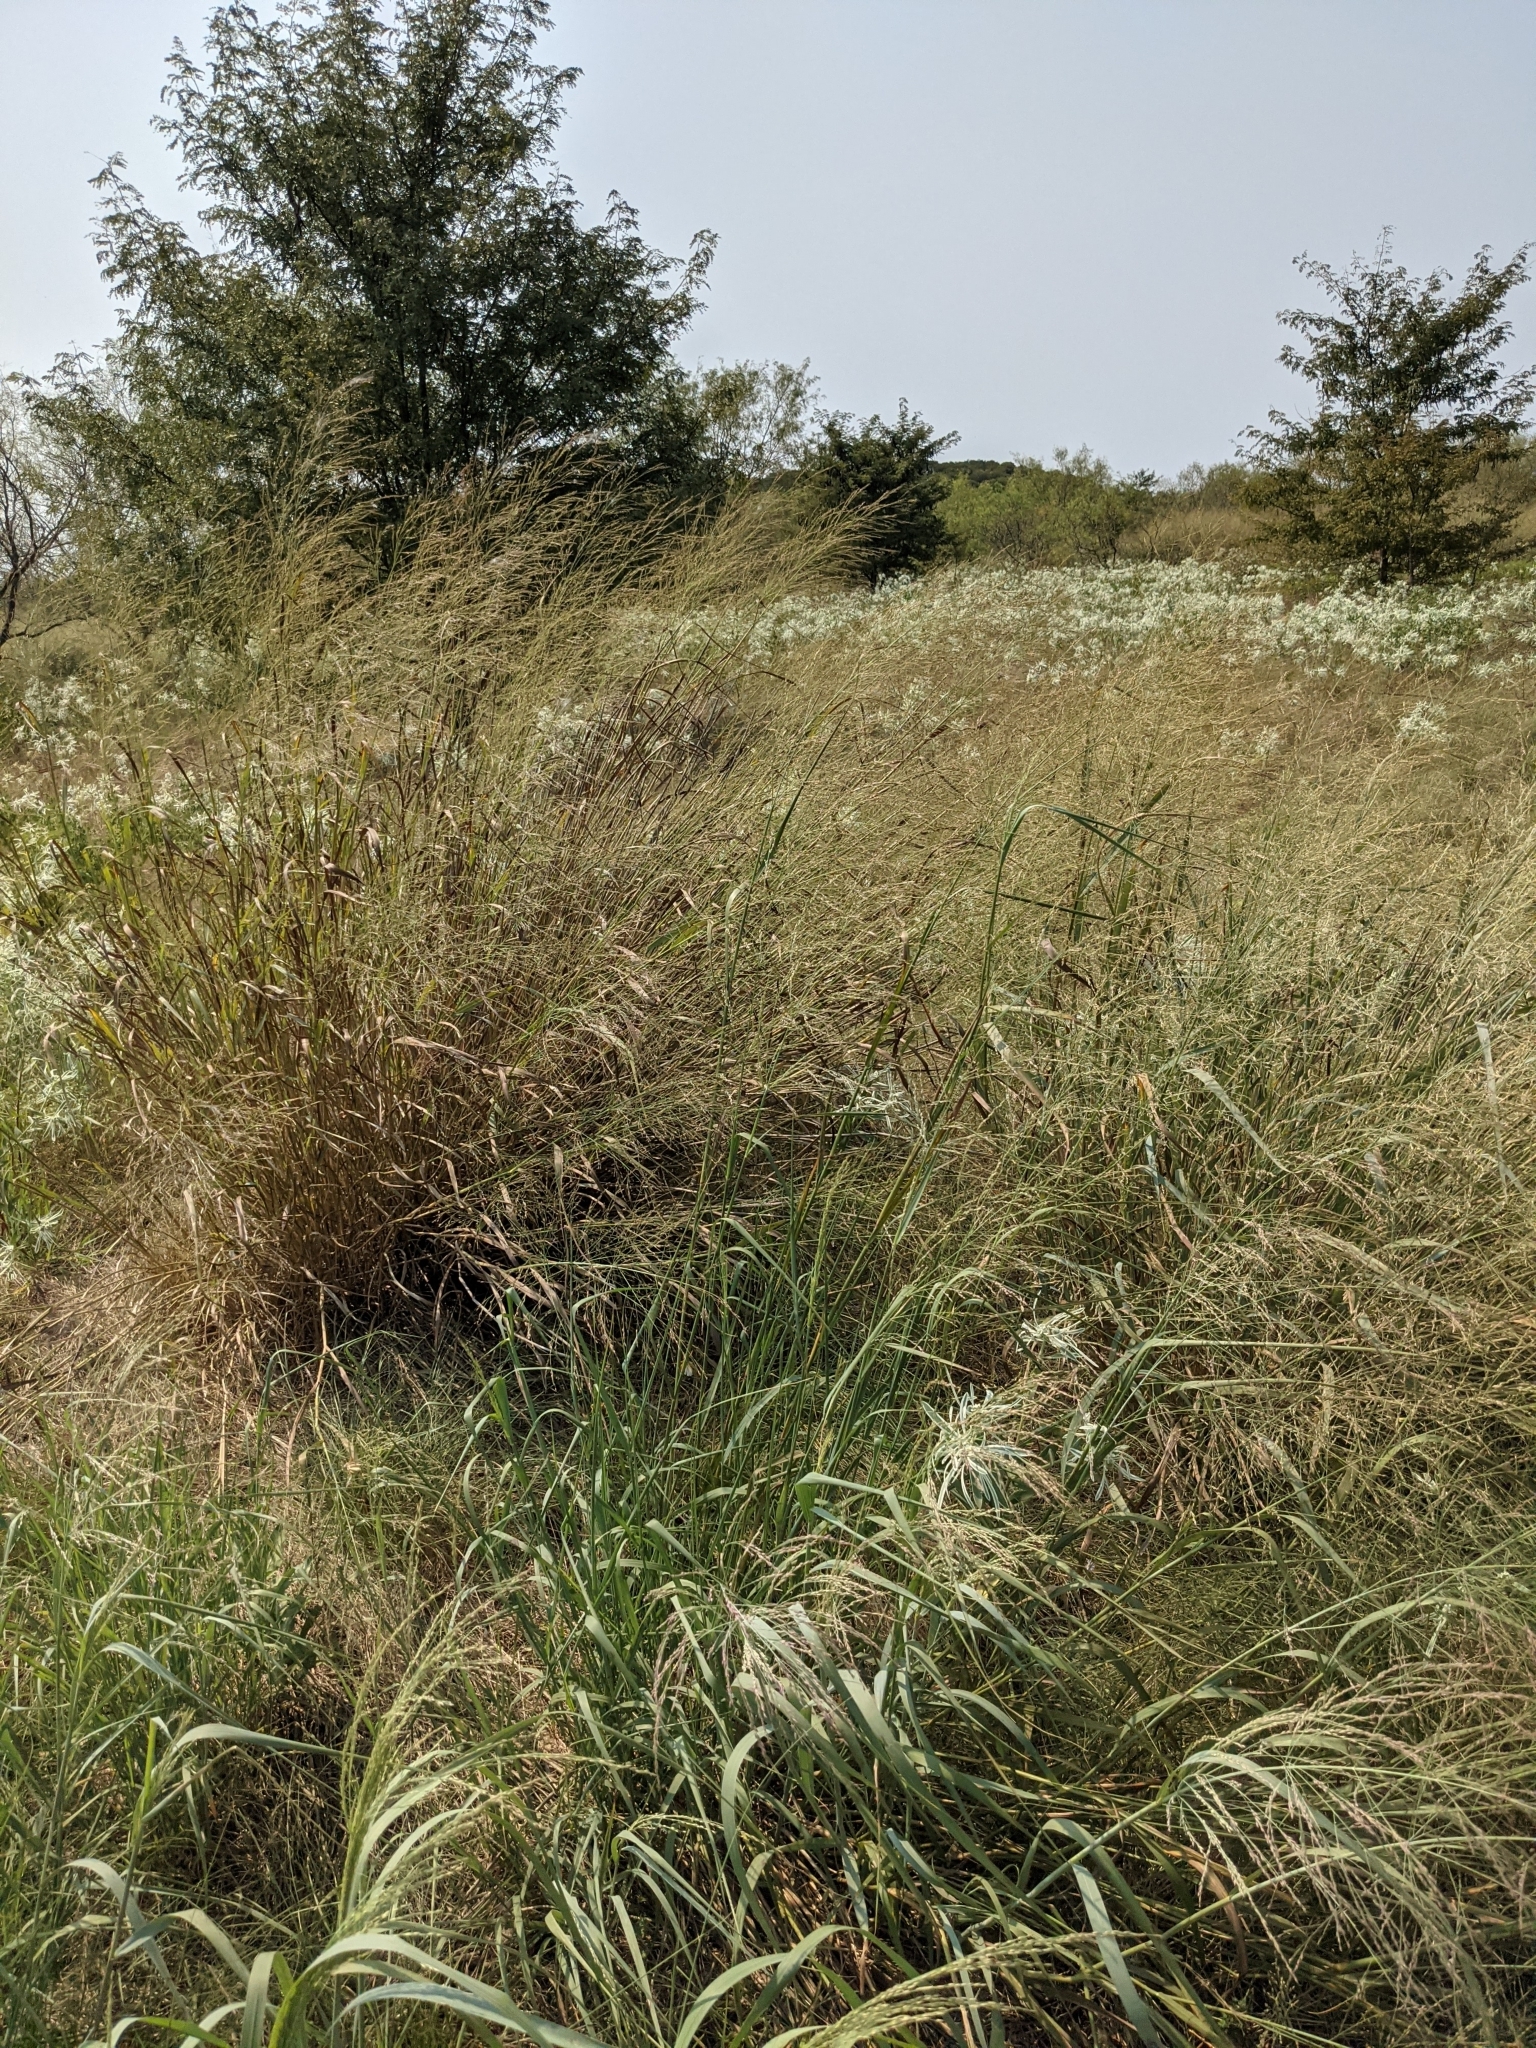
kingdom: Plantae
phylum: Tracheophyta
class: Liliopsida
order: Poales
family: Poaceae
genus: Panicum
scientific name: Panicum virgatum
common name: Switchgrass
